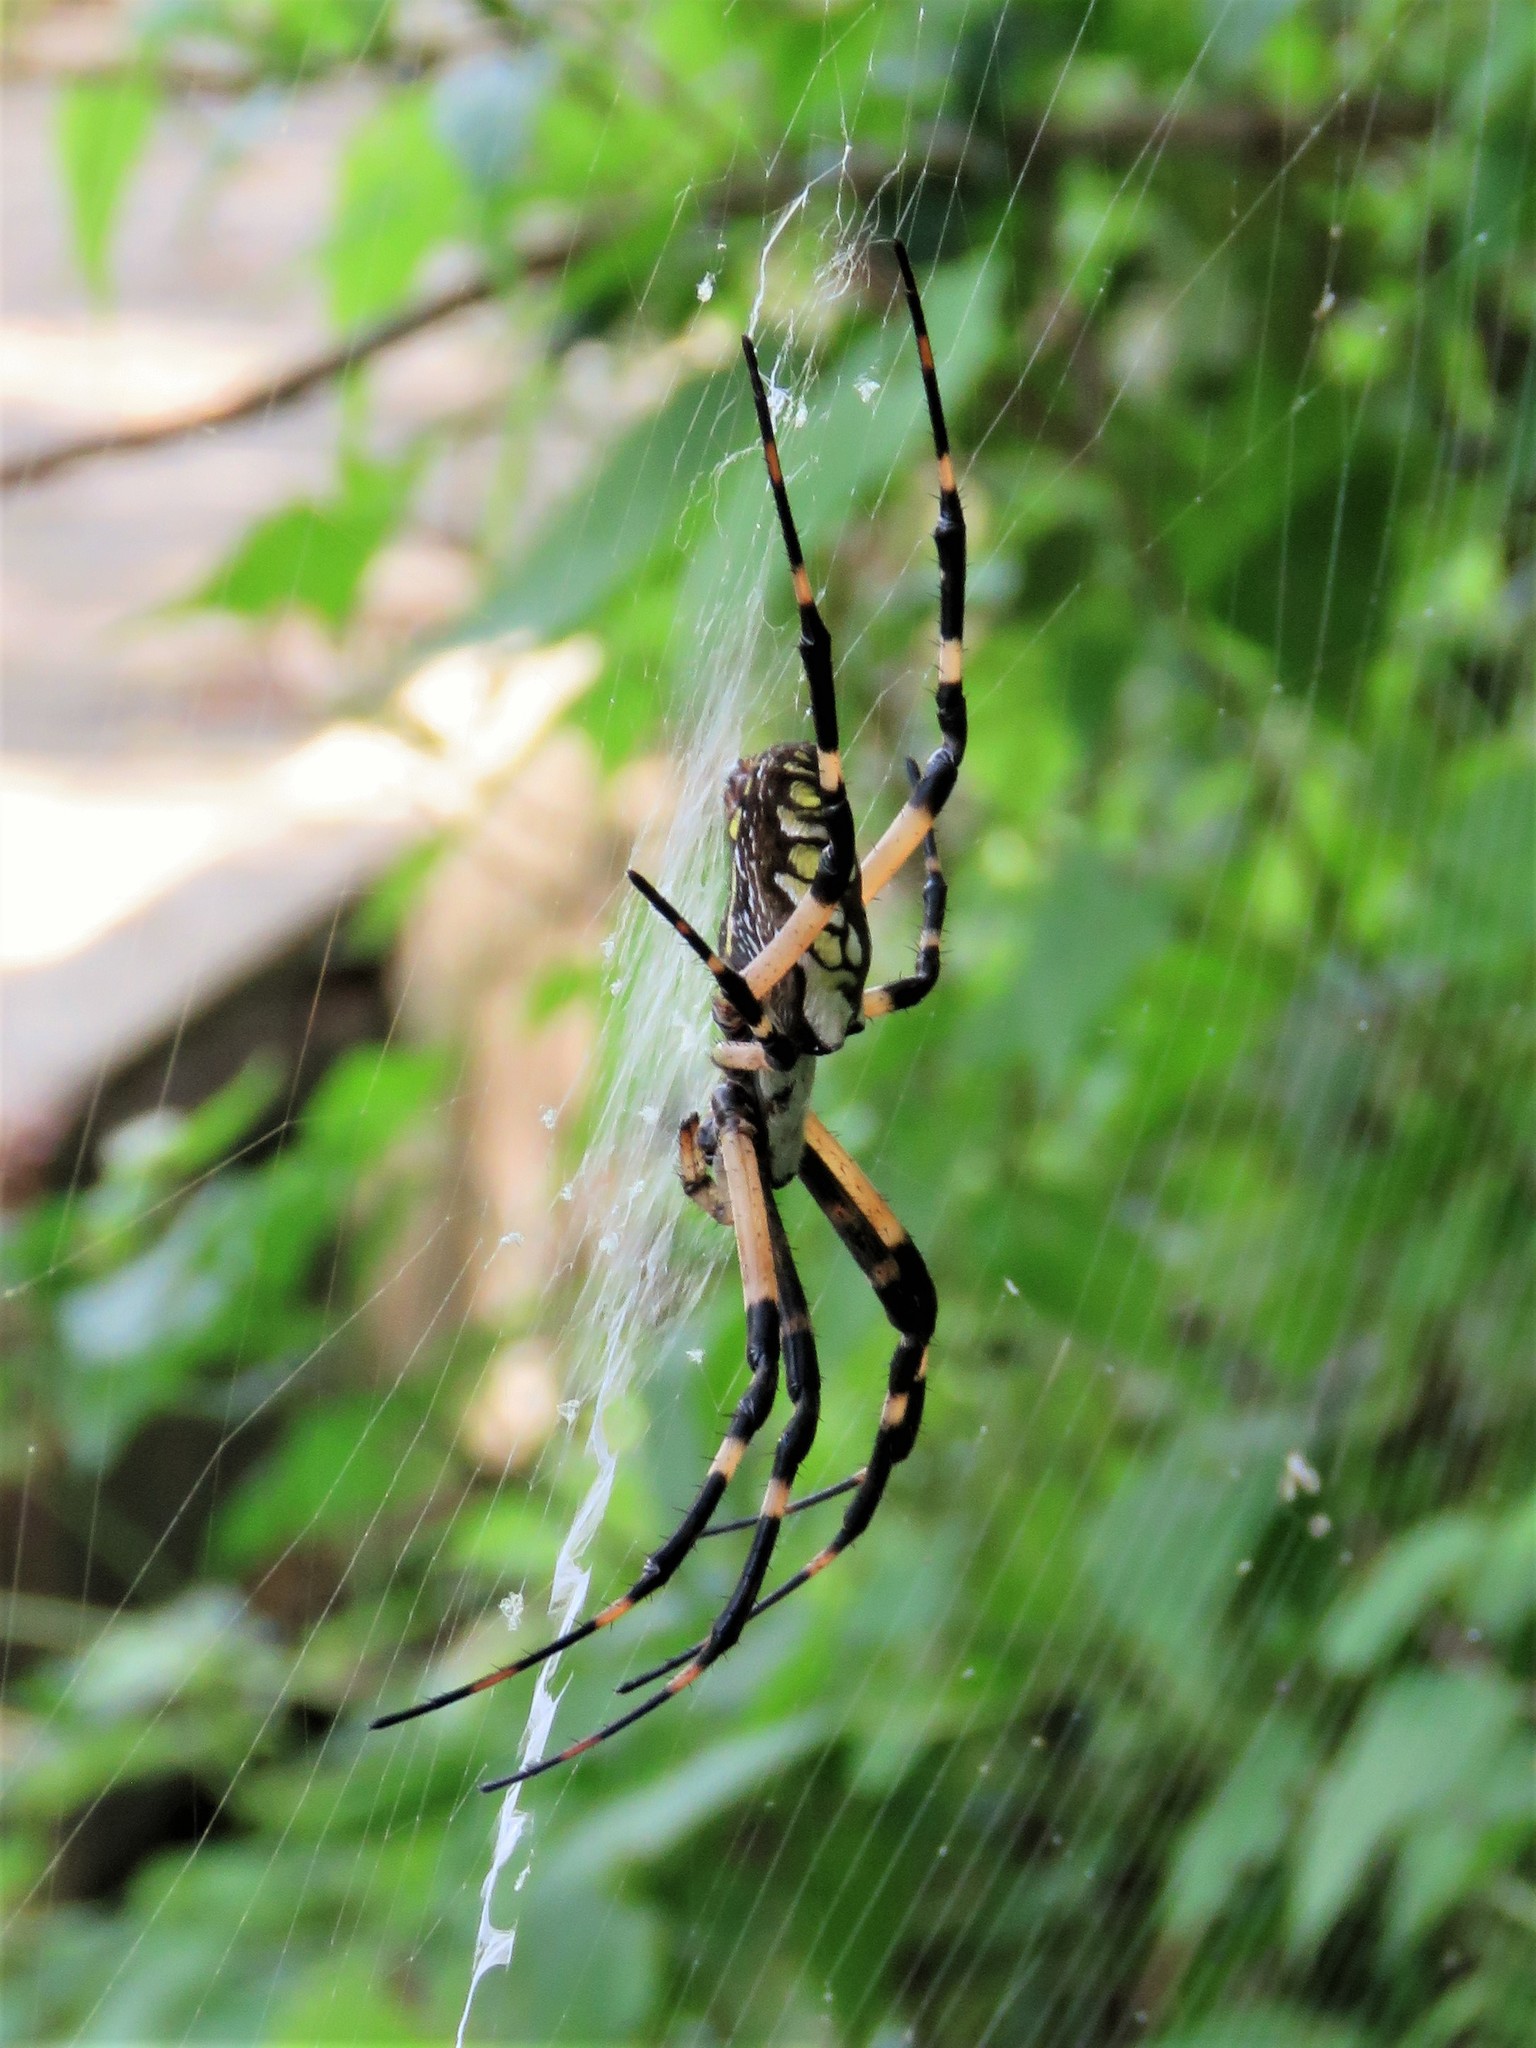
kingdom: Animalia
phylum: Arthropoda
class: Arachnida
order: Araneae
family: Araneidae
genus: Argiope
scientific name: Argiope aurantia
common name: Orb weavers
